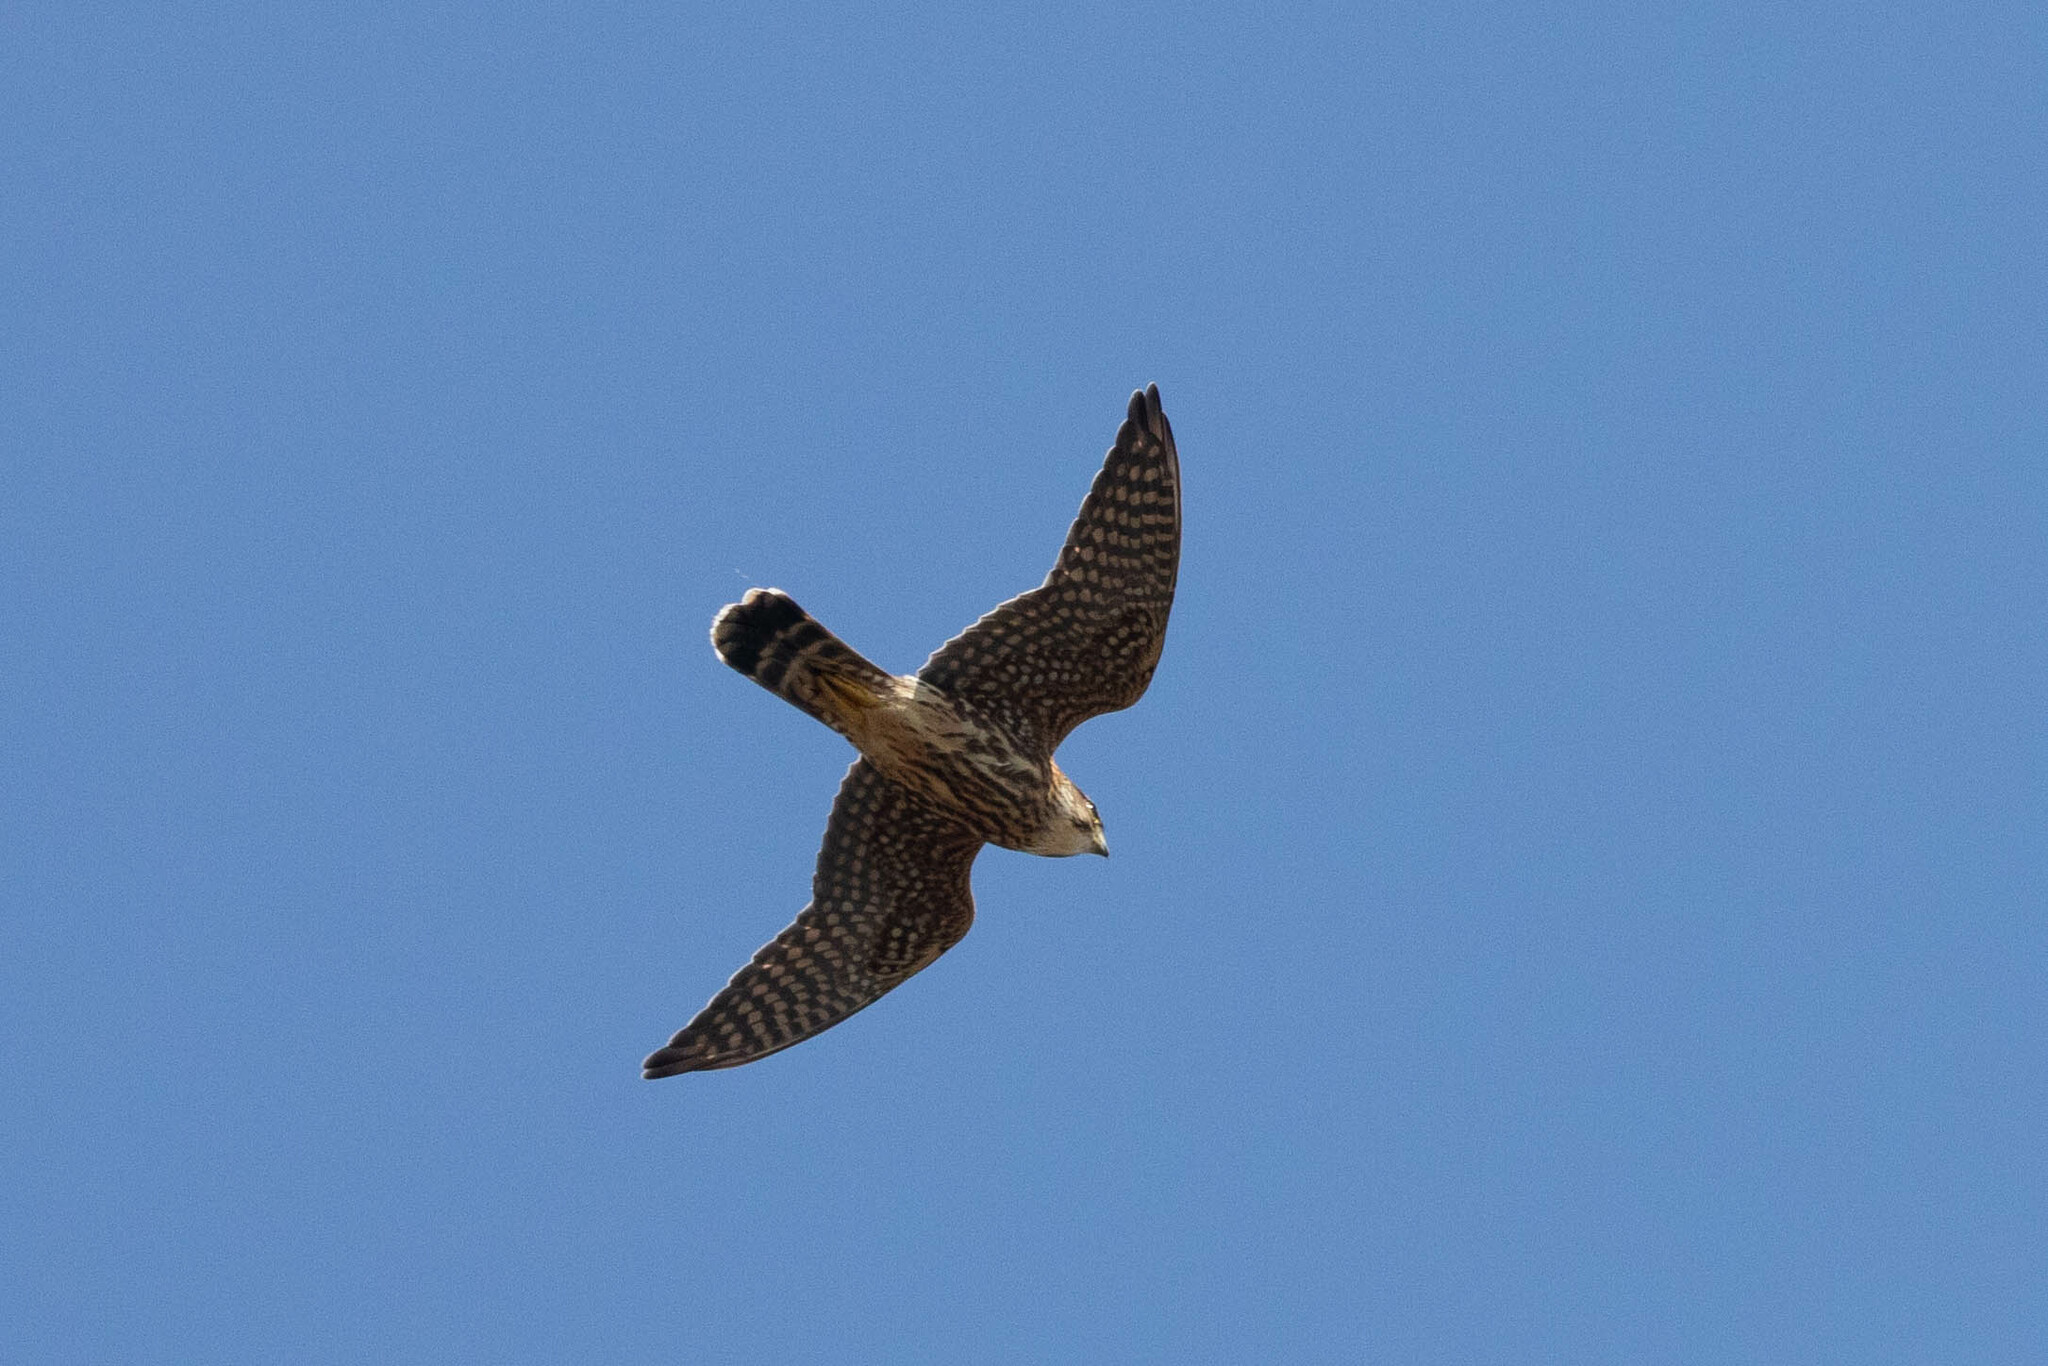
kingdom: Animalia
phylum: Chordata
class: Aves
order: Falconiformes
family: Falconidae
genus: Falco
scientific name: Falco columbarius
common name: Merlin
